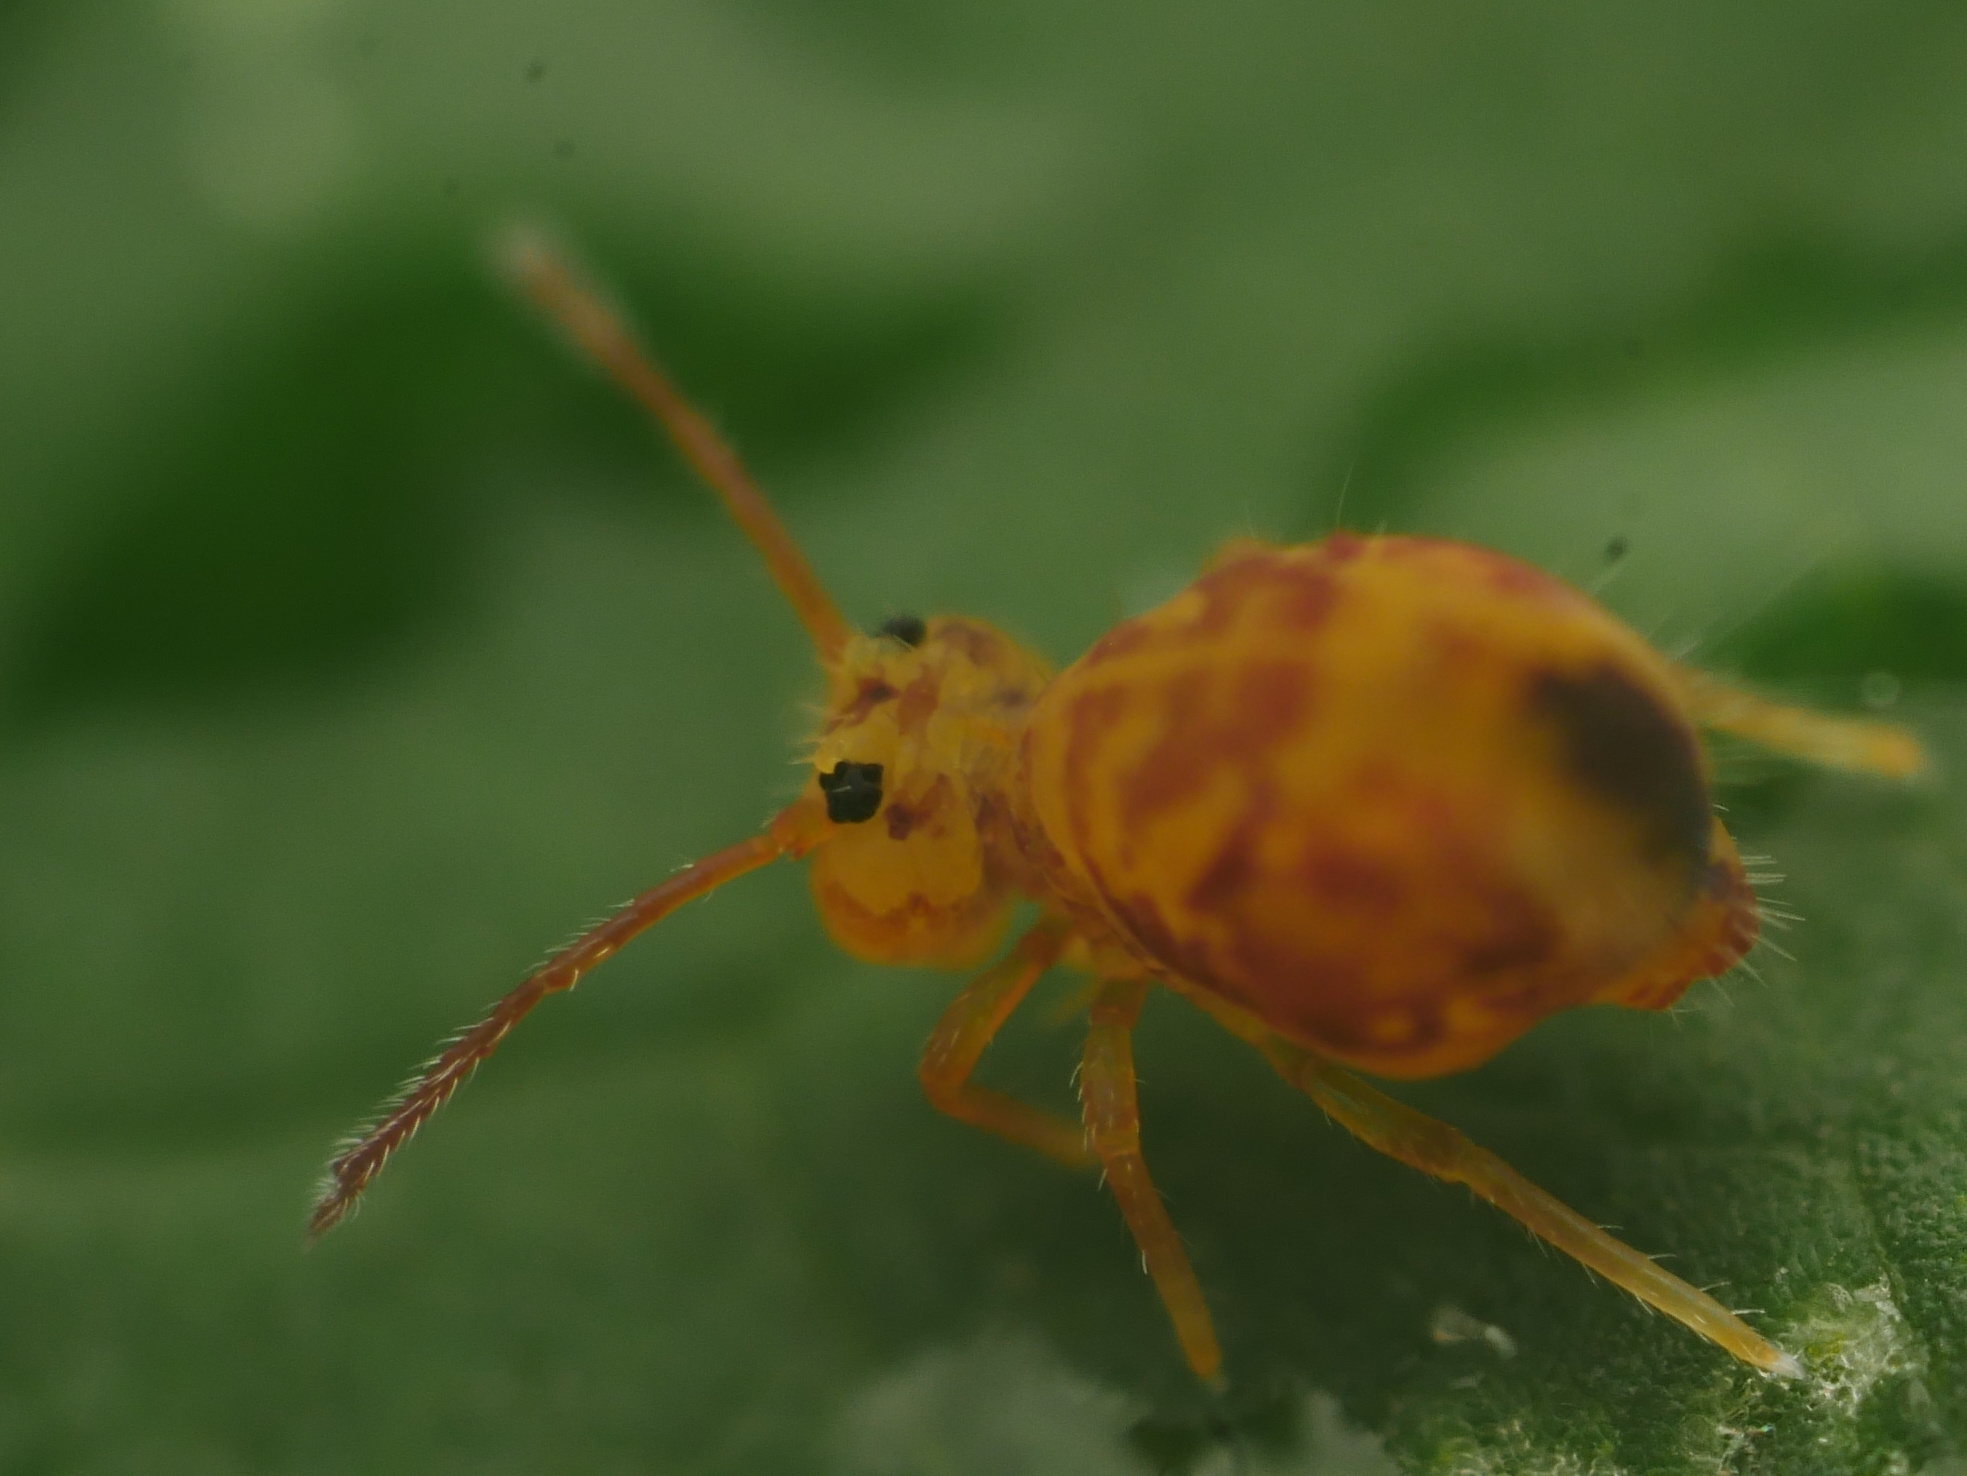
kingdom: Animalia
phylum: Arthropoda
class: Collembola
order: Symphypleona
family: Dicyrtomidae
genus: Dicyrtomina
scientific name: Dicyrtomina ornata
